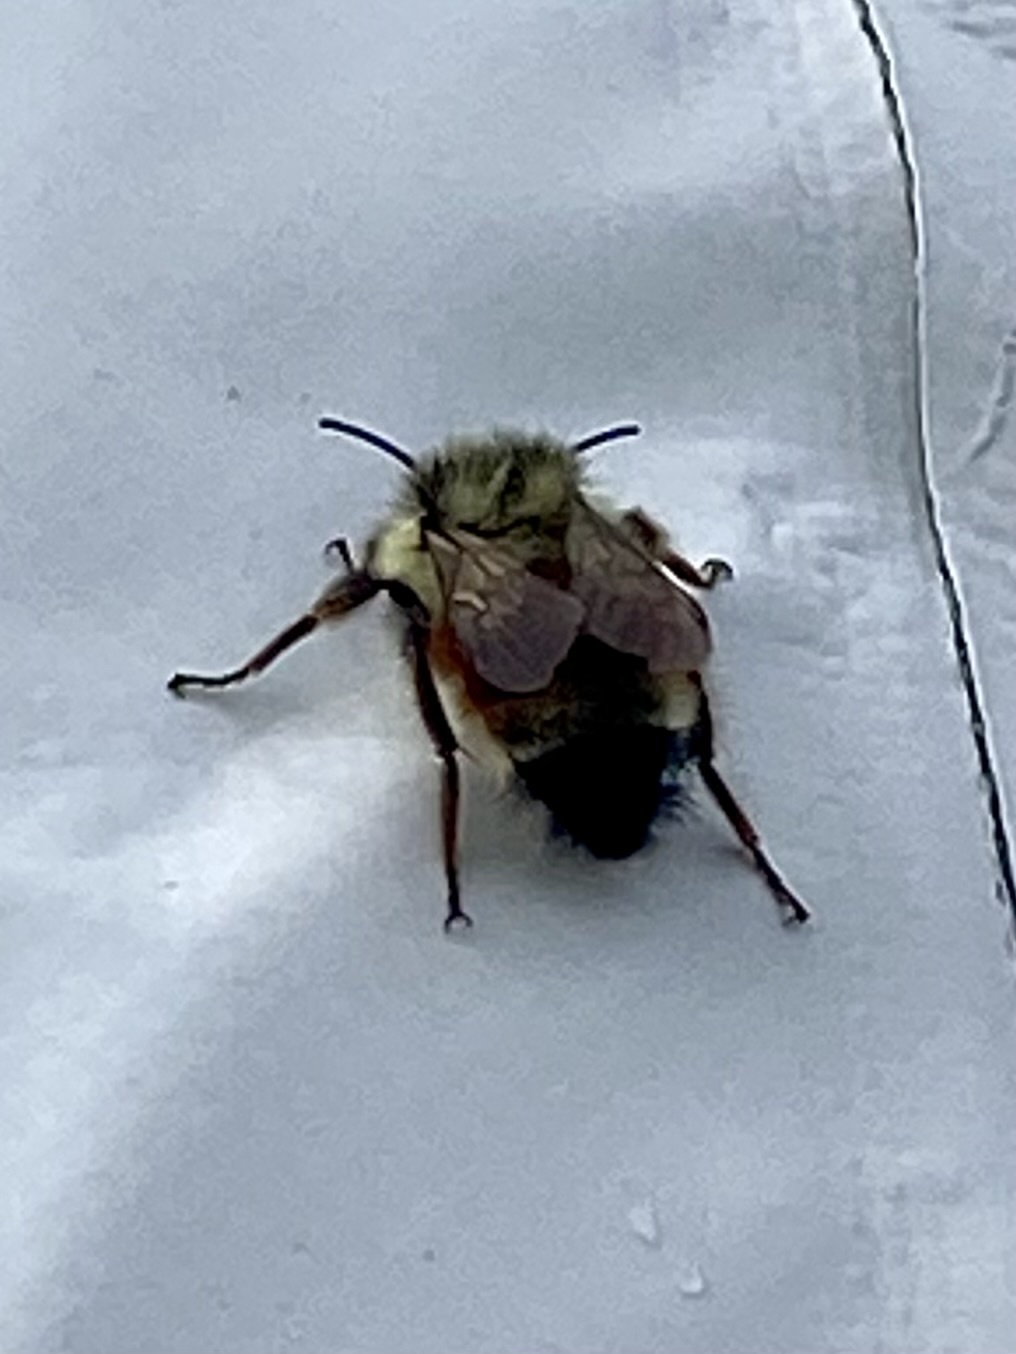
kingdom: Animalia
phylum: Arthropoda
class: Insecta
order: Hymenoptera
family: Apidae
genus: Bombus
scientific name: Bombus ternarius
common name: Tri-colored bumble bee
